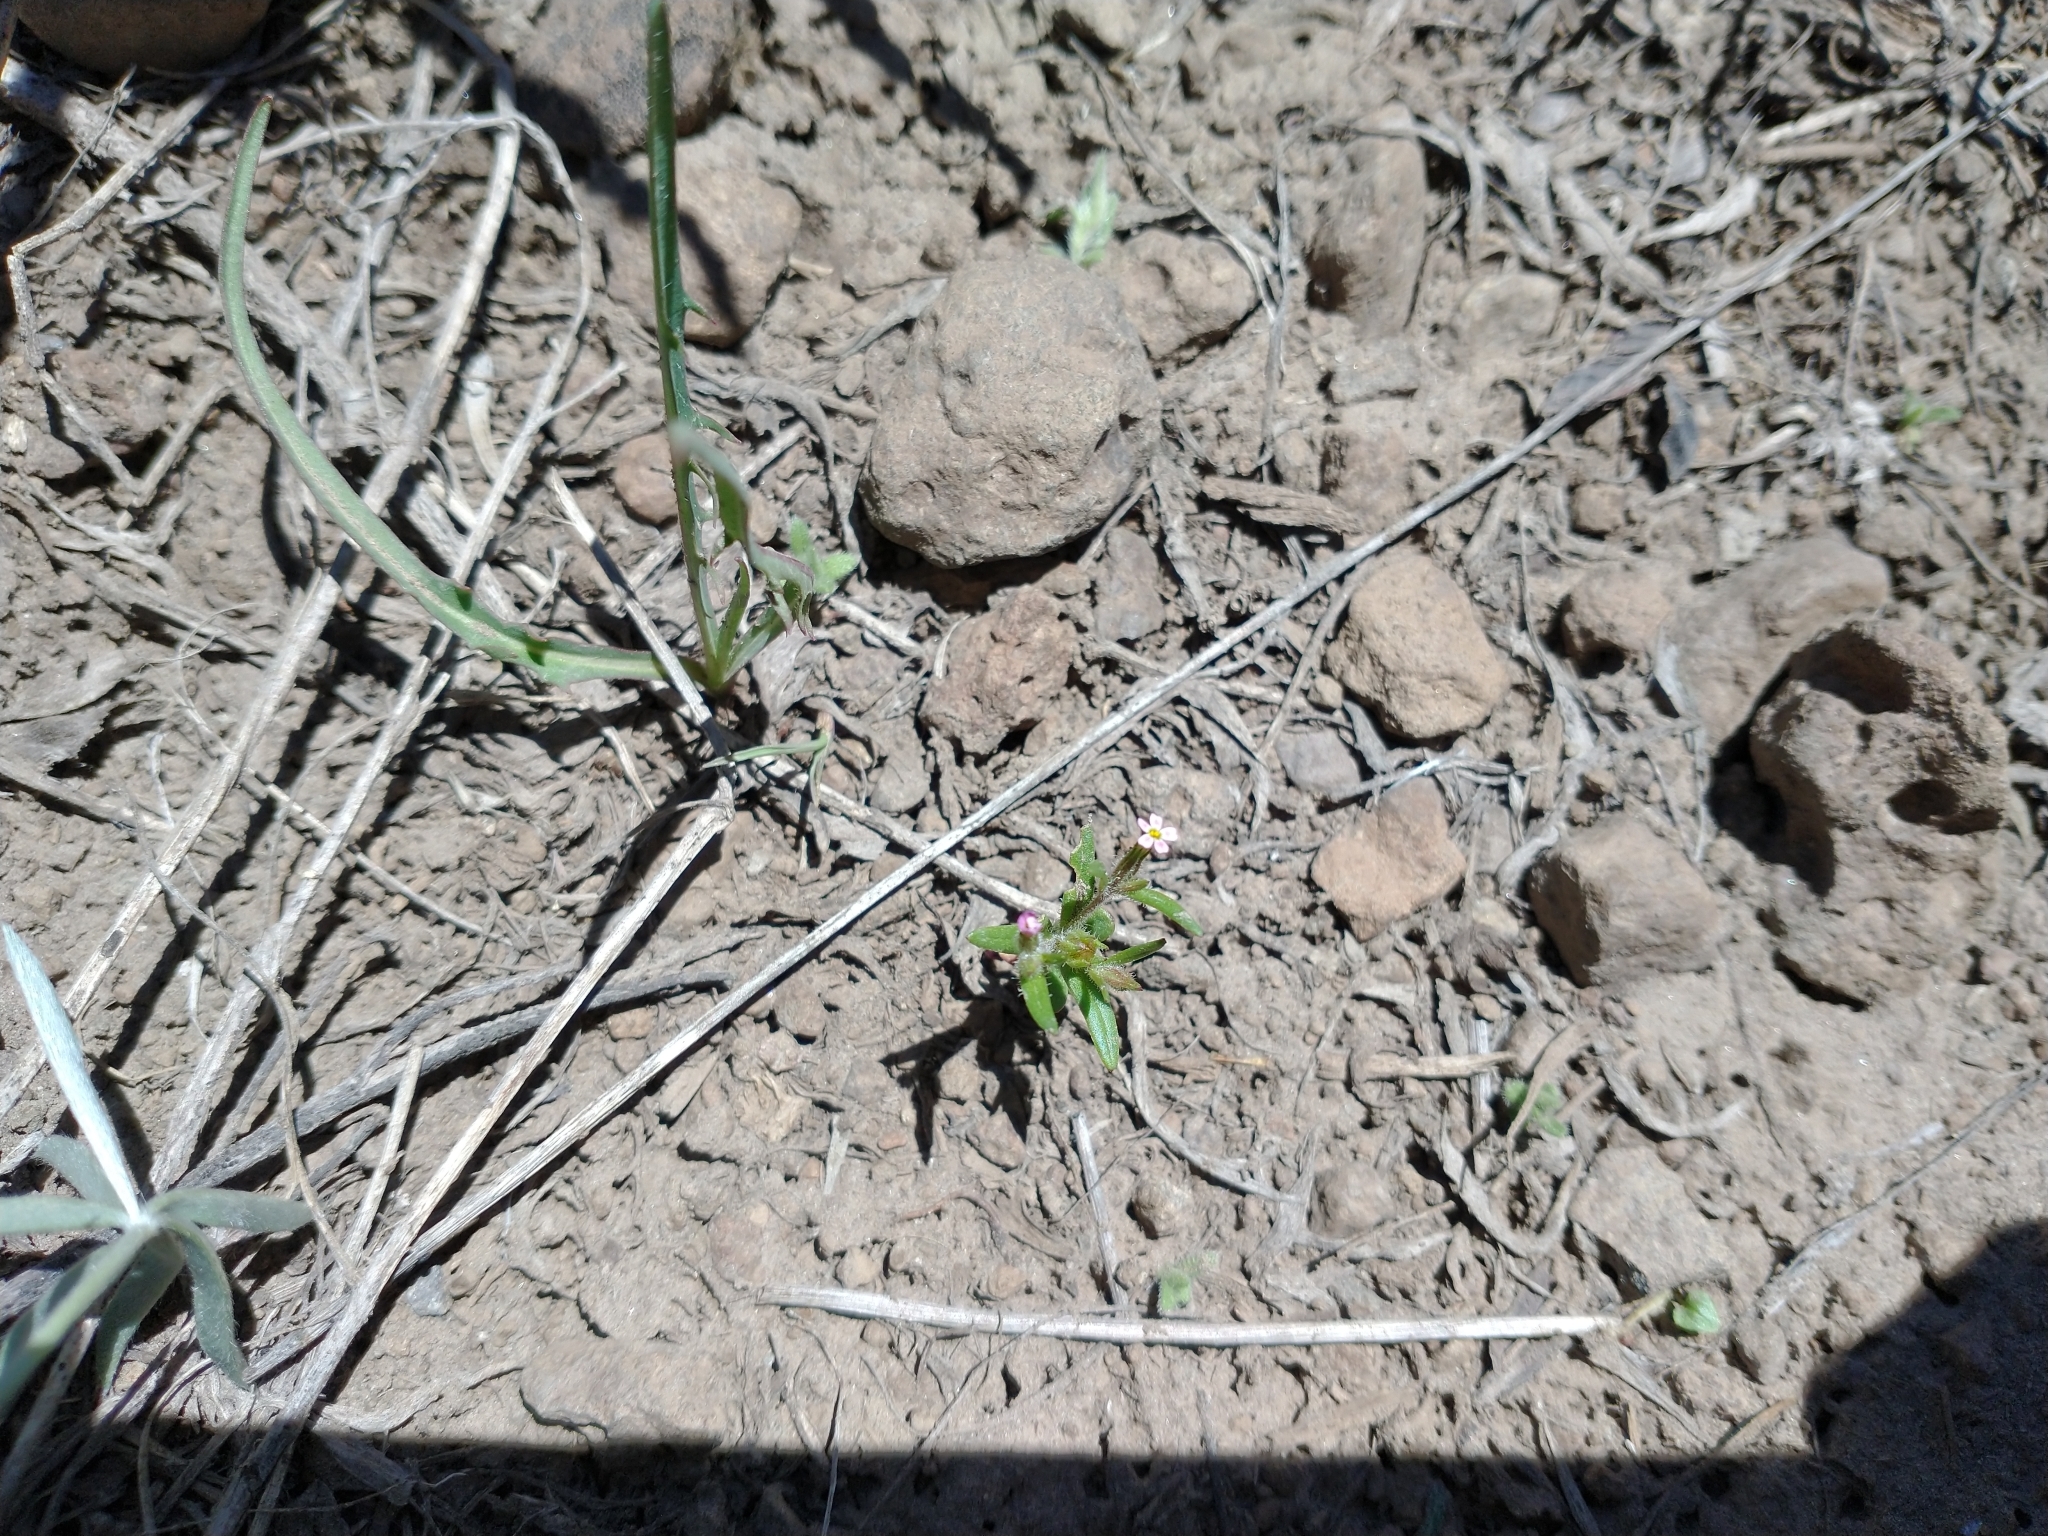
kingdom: Plantae
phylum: Tracheophyta
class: Magnoliopsida
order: Ericales
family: Polemoniaceae
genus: Phlox
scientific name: Phlox gracilis
